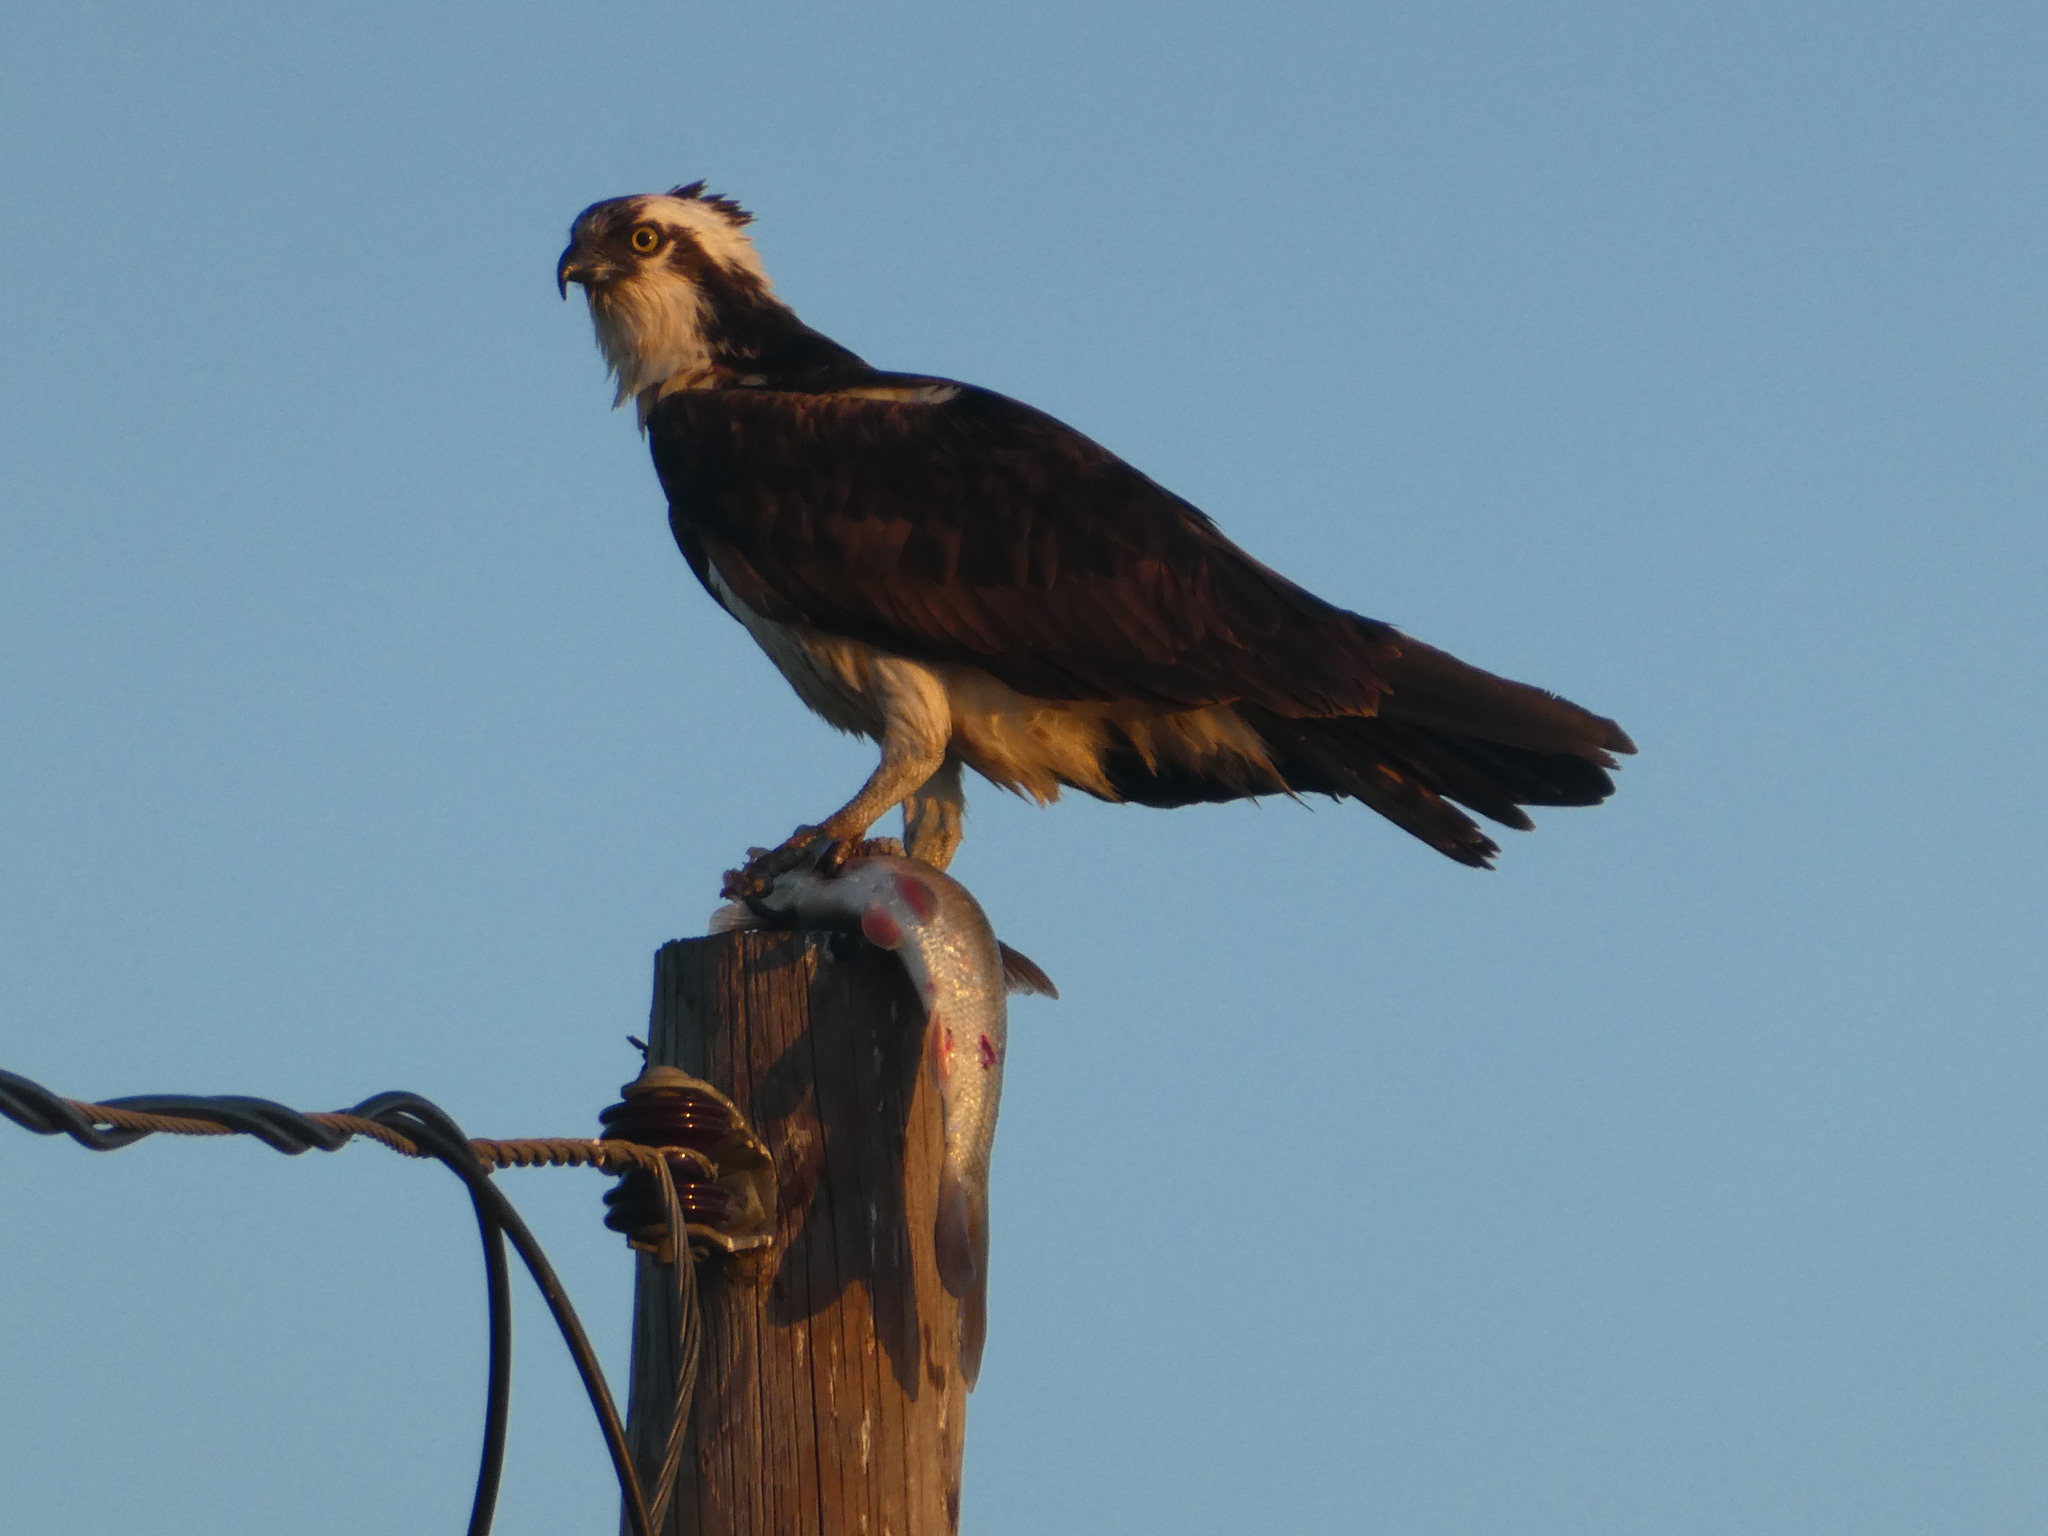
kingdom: Animalia
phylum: Chordata
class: Aves
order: Accipitriformes
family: Pandionidae
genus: Pandion
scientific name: Pandion haliaetus
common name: Osprey
